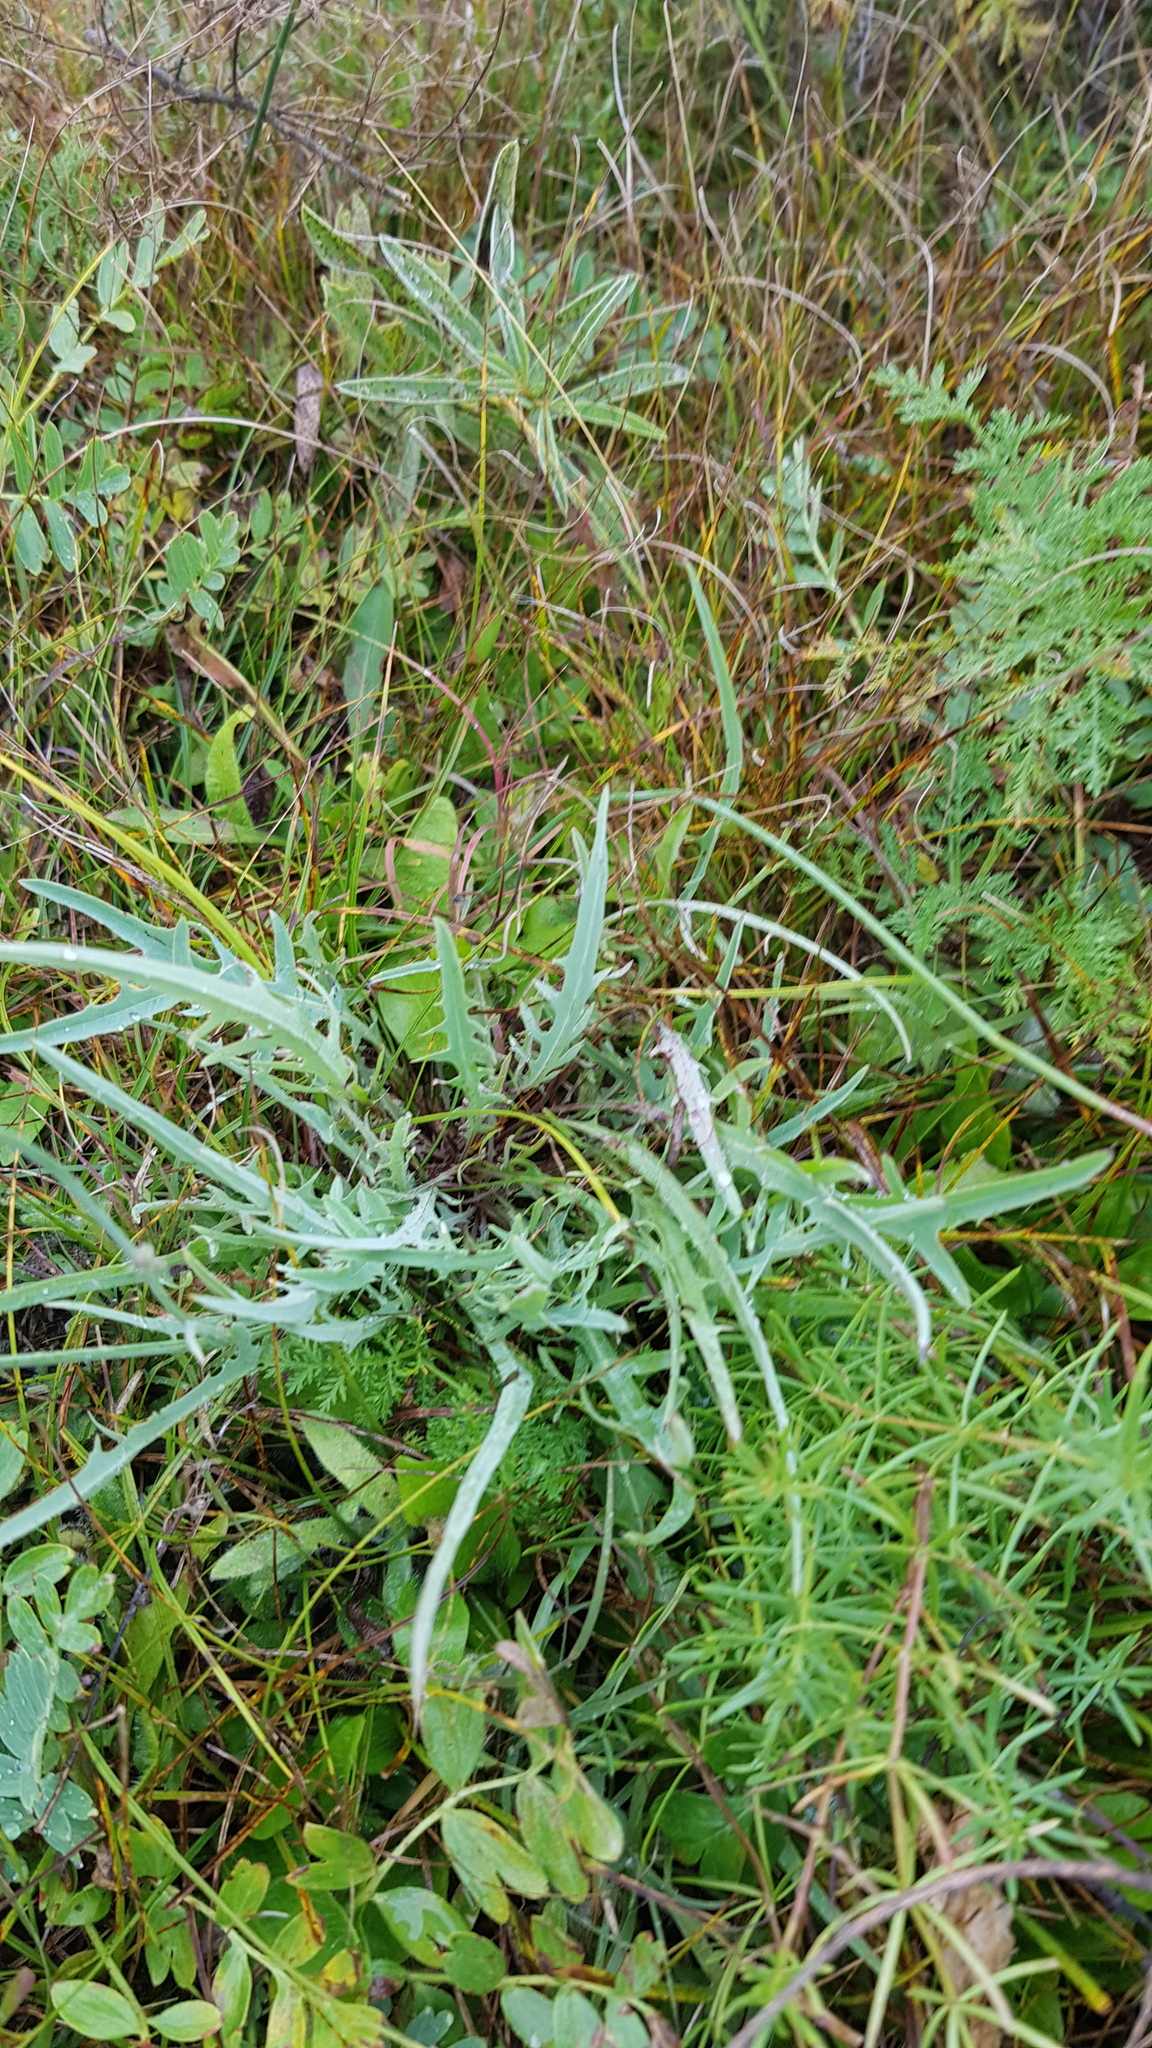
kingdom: Plantae
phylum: Tracheophyta
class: Magnoliopsida
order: Asterales
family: Asteraceae
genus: Crepidiastrum
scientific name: Crepidiastrum tenuifolium
